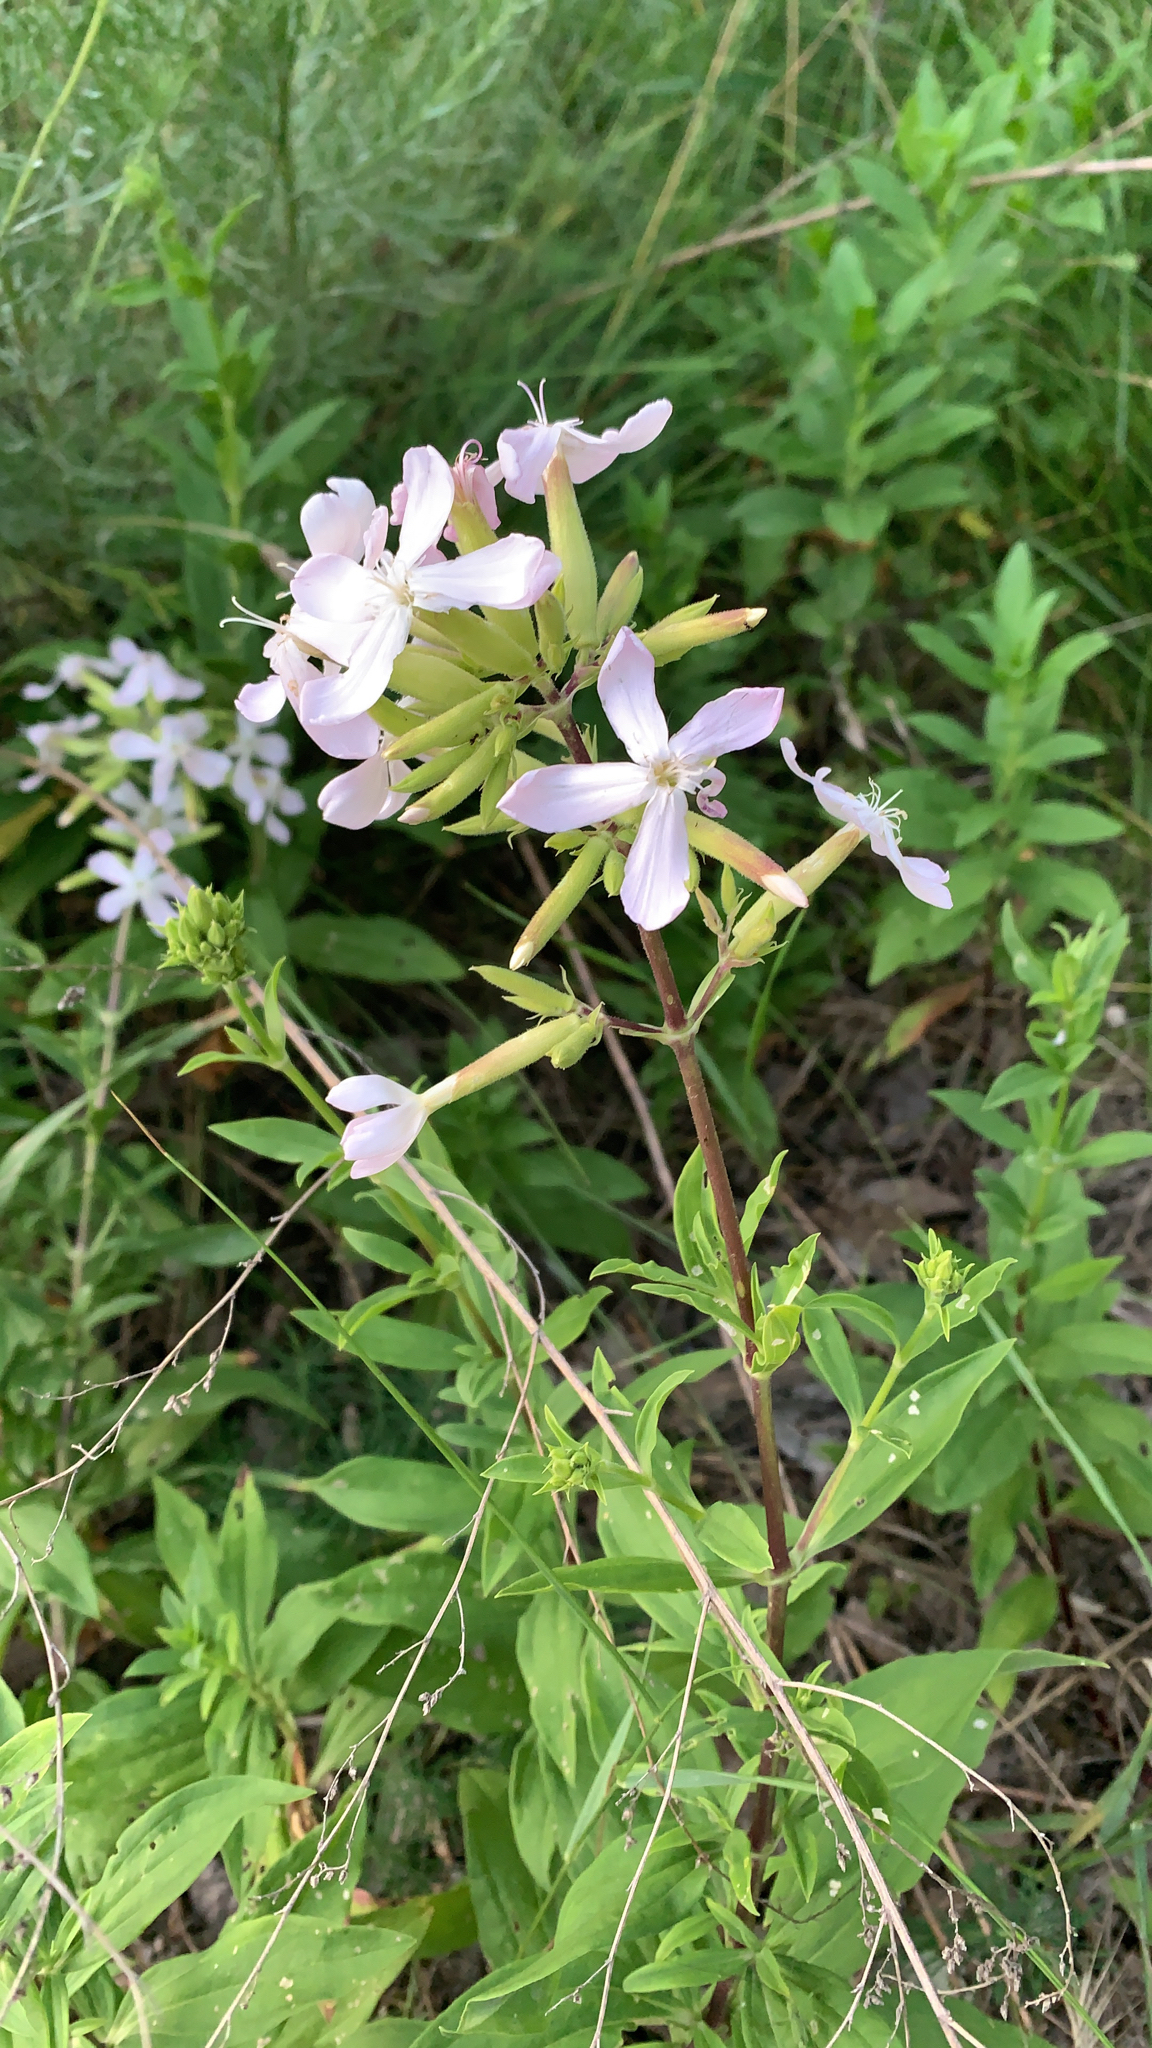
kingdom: Plantae
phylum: Tracheophyta
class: Magnoliopsida
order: Caryophyllales
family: Caryophyllaceae
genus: Saponaria
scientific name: Saponaria officinalis
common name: Soapwort
